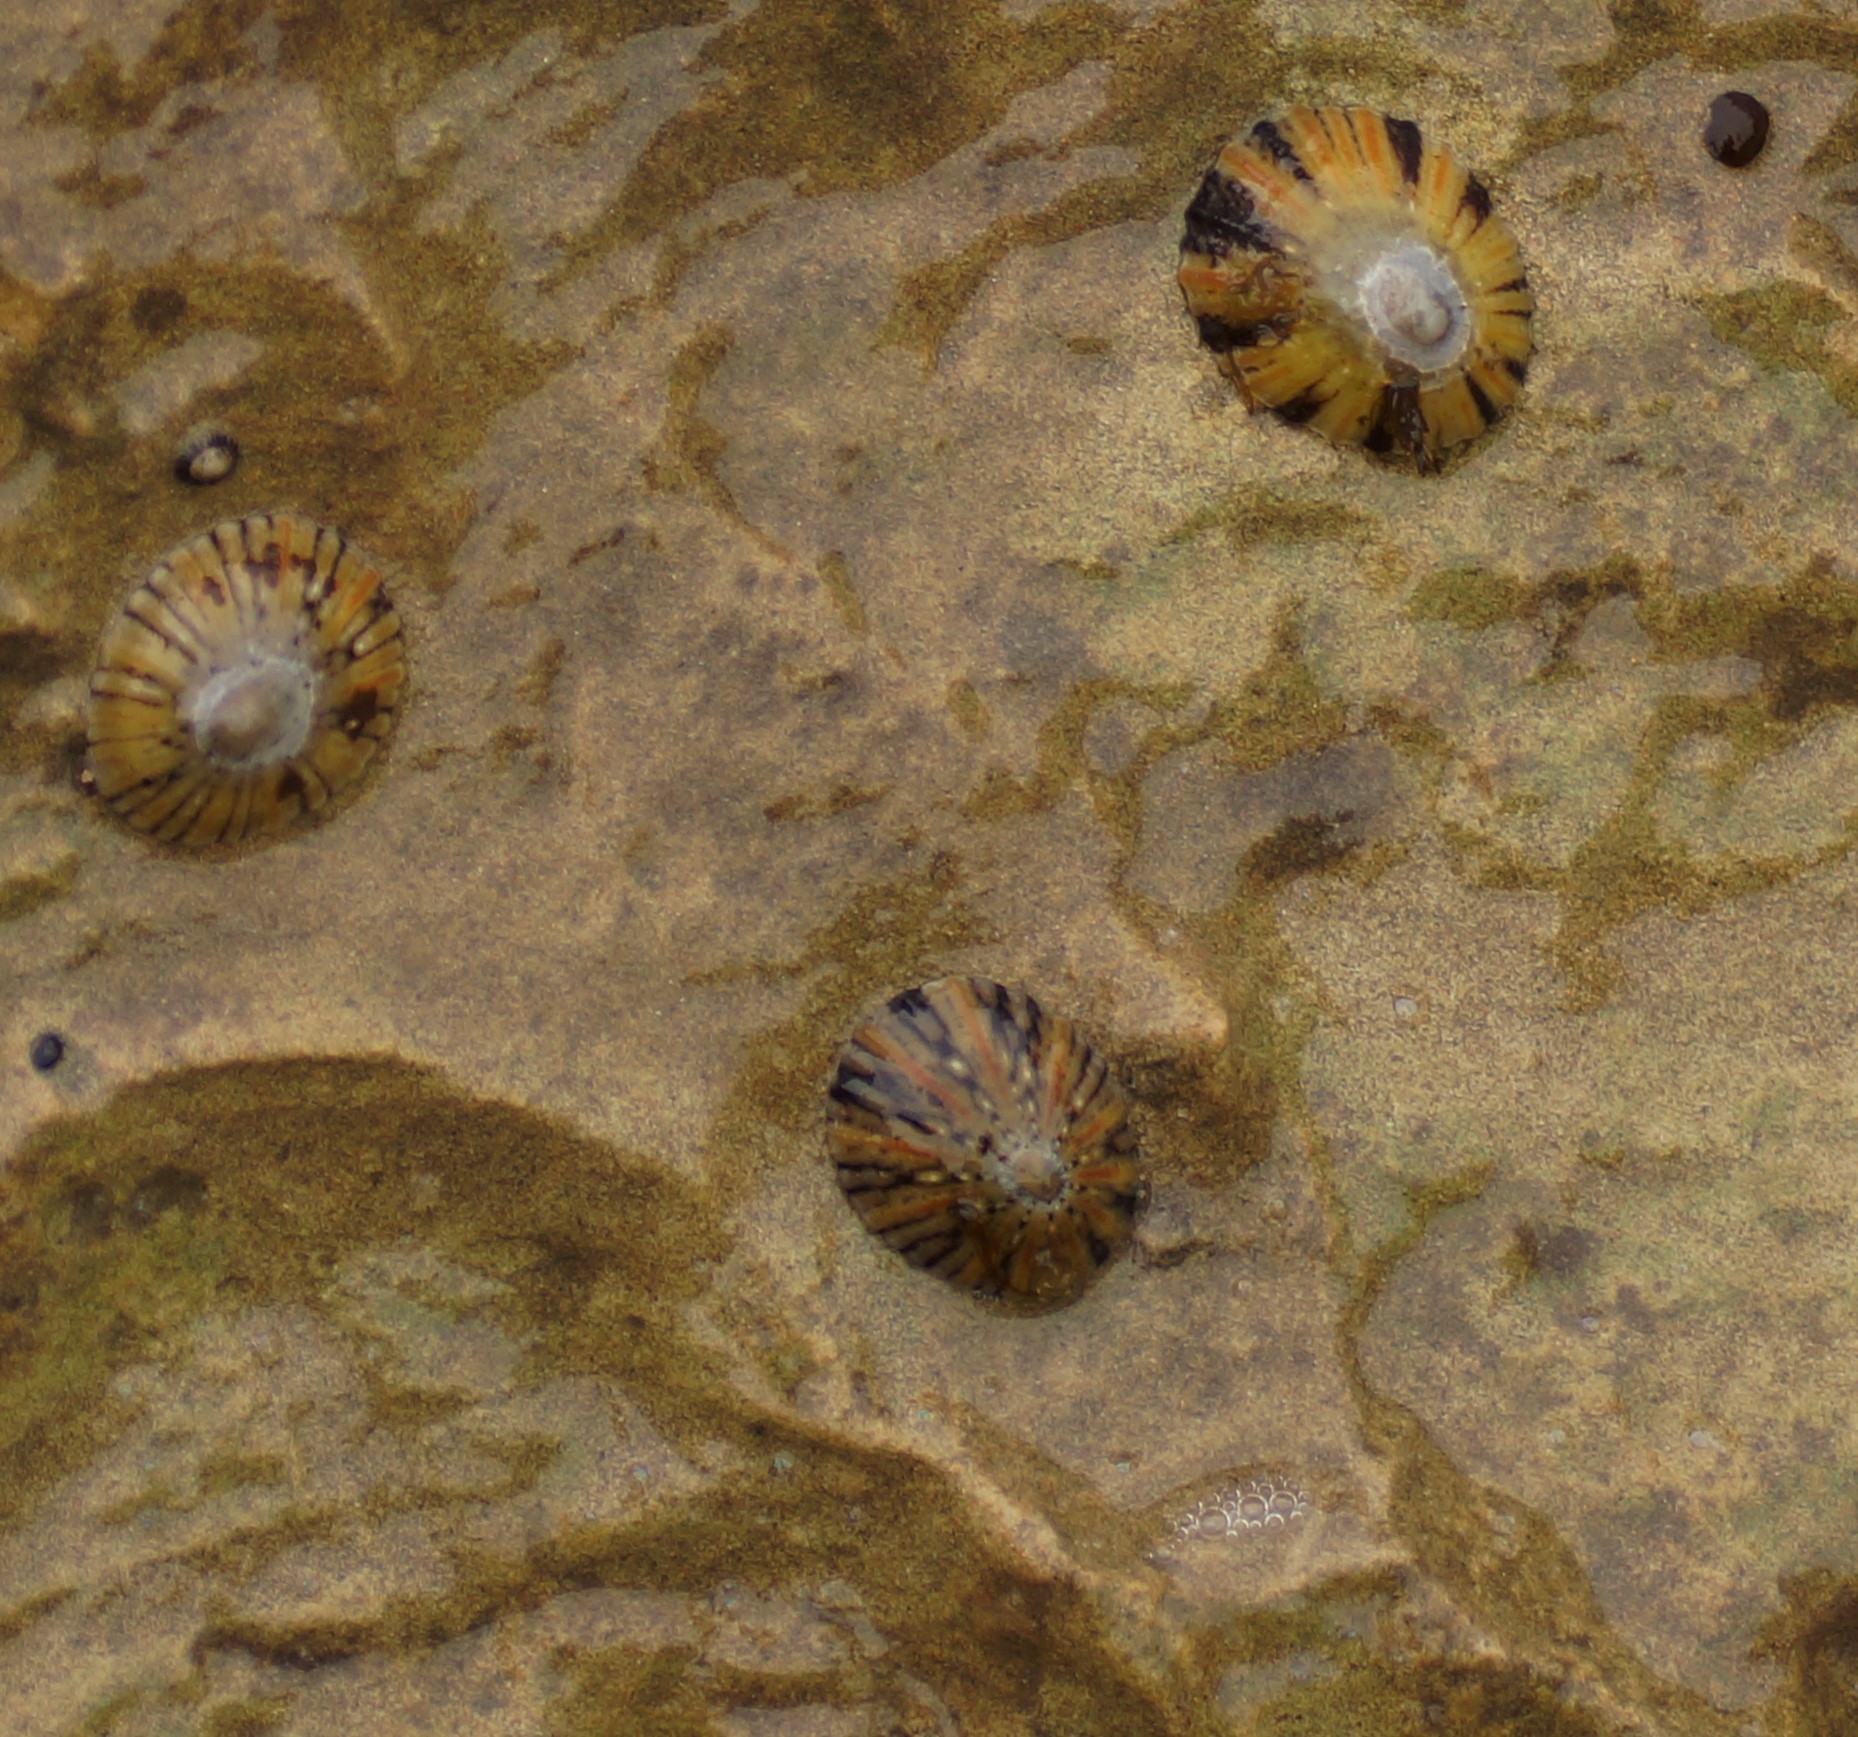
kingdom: Animalia
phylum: Mollusca
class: Gastropoda
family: Nacellidae
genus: Cellana
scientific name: Cellana tramoserica
